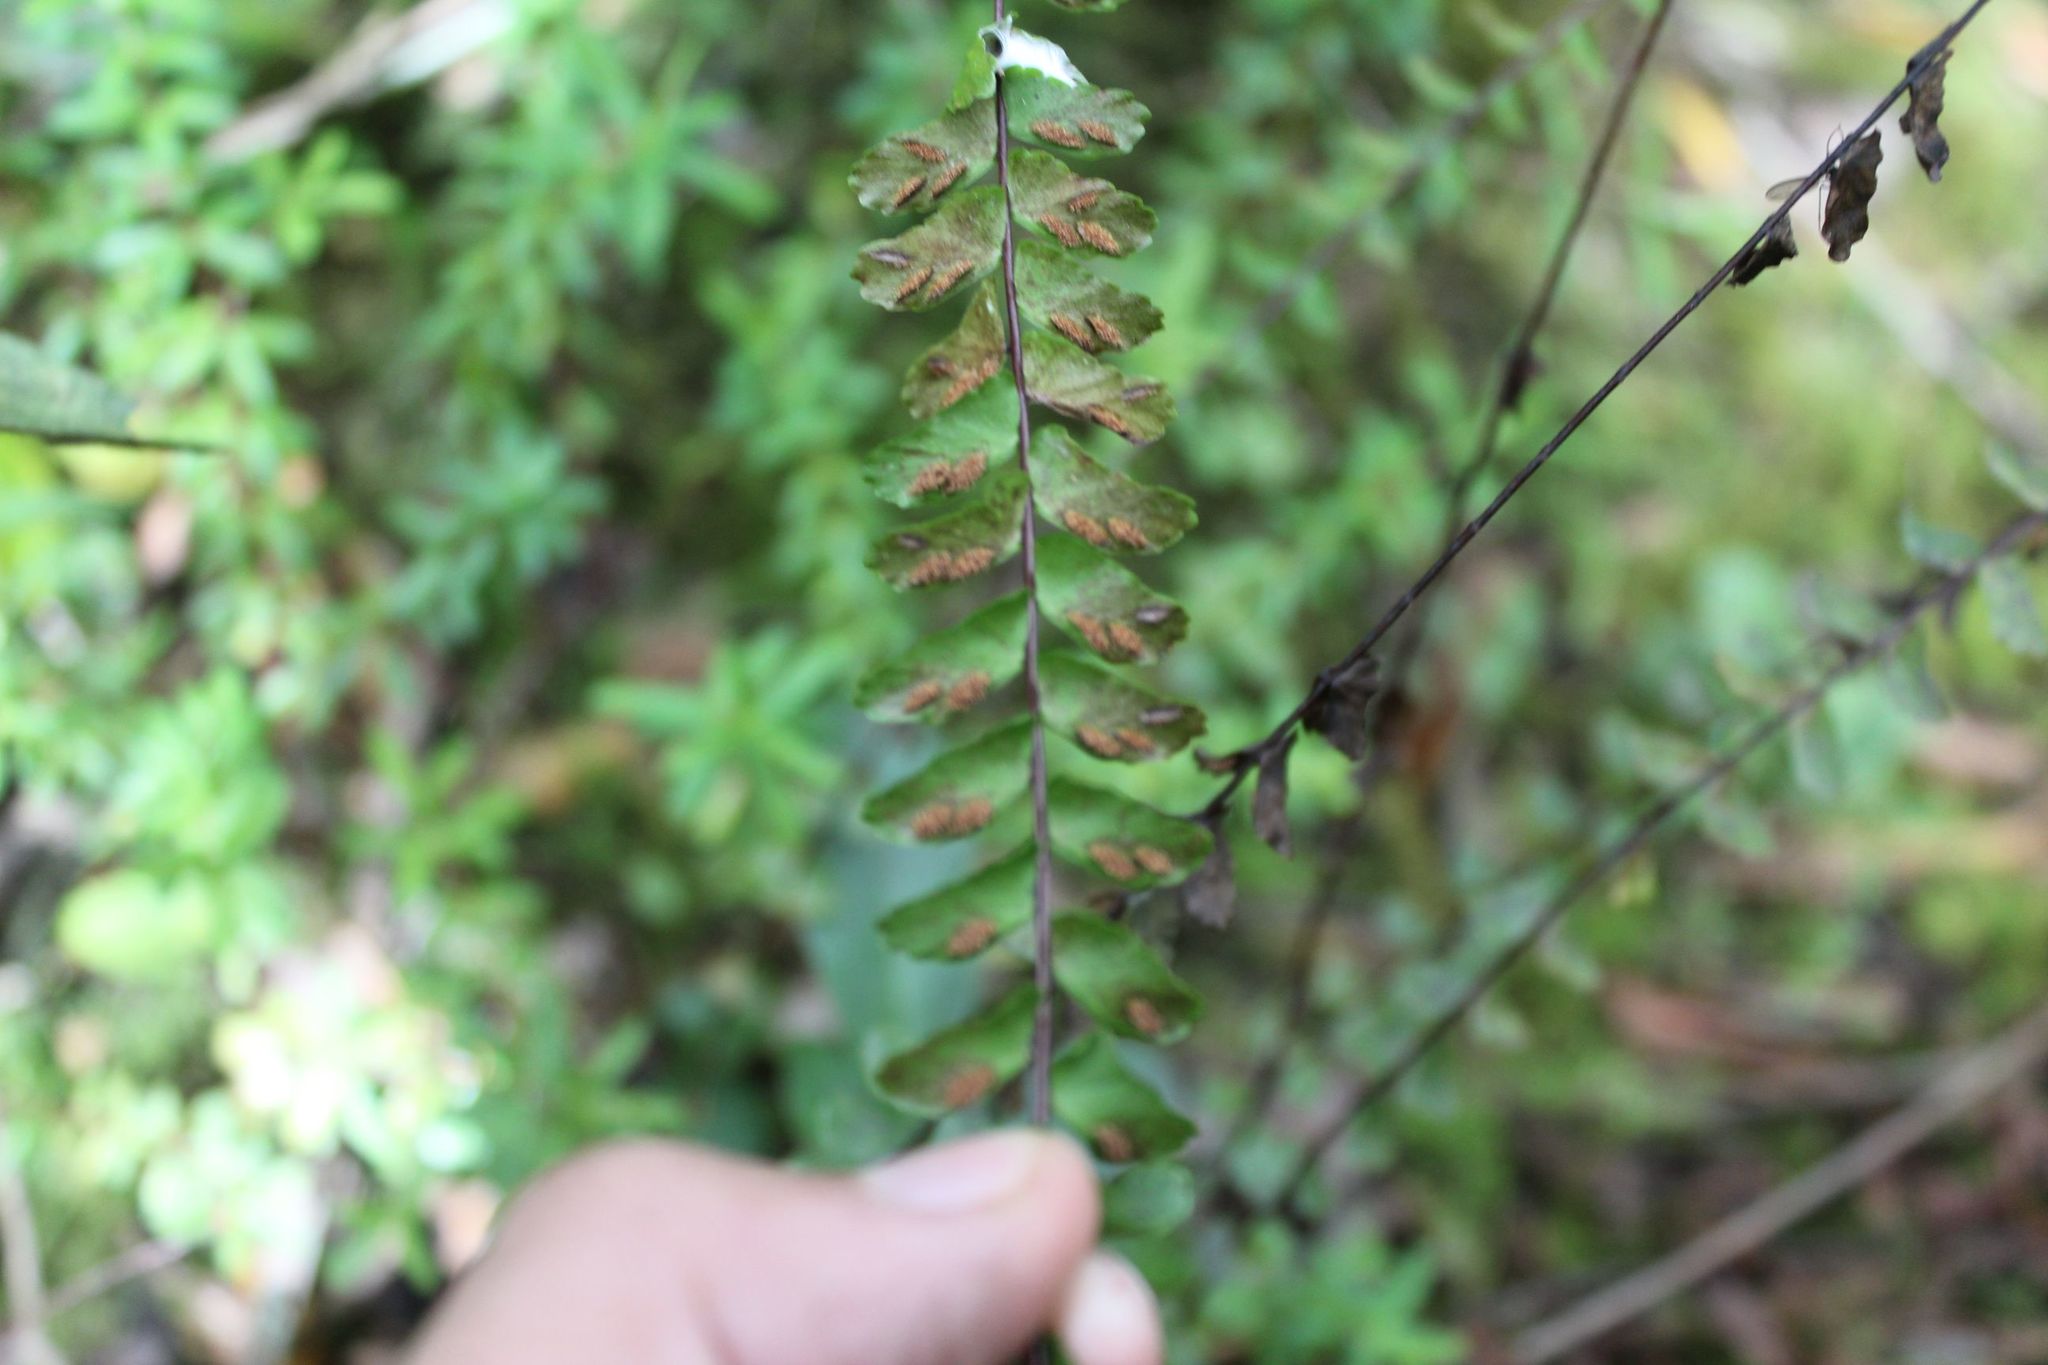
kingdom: Plantae
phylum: Tracheophyta
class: Polypodiopsida
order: Polypodiales
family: Aspleniaceae
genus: Asplenium
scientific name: Asplenium monanthes
